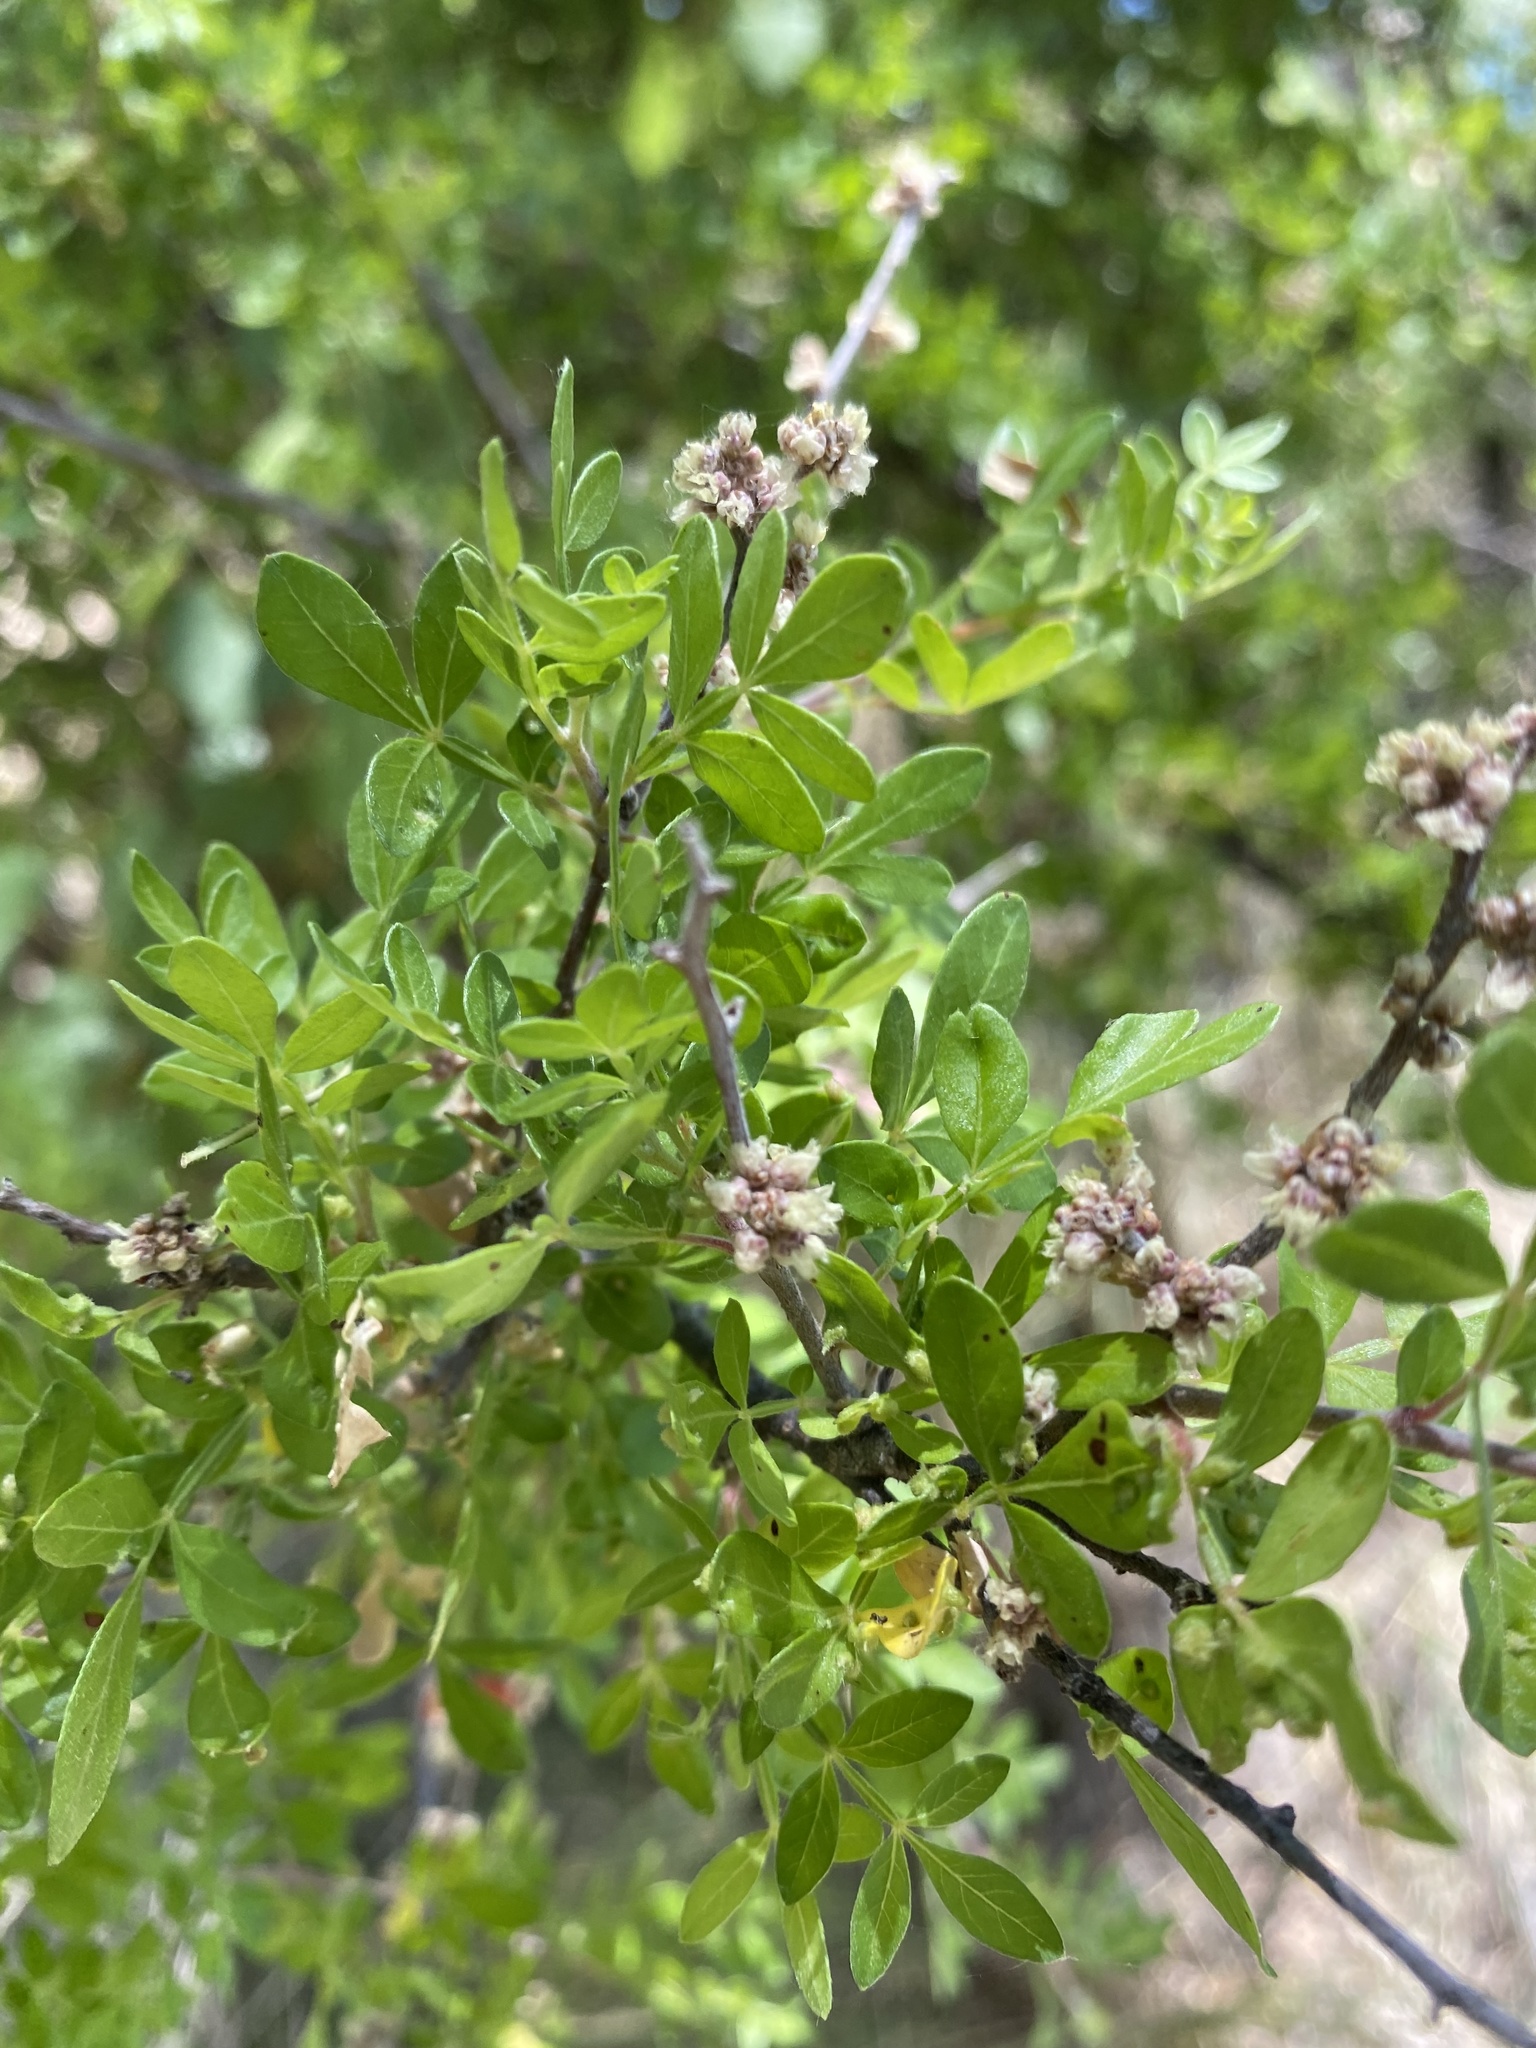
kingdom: Plantae
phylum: Tracheophyta
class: Magnoliopsida
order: Sapindales
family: Anacardiaceae
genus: Rhus
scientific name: Rhus microphylla
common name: Desert sumac
